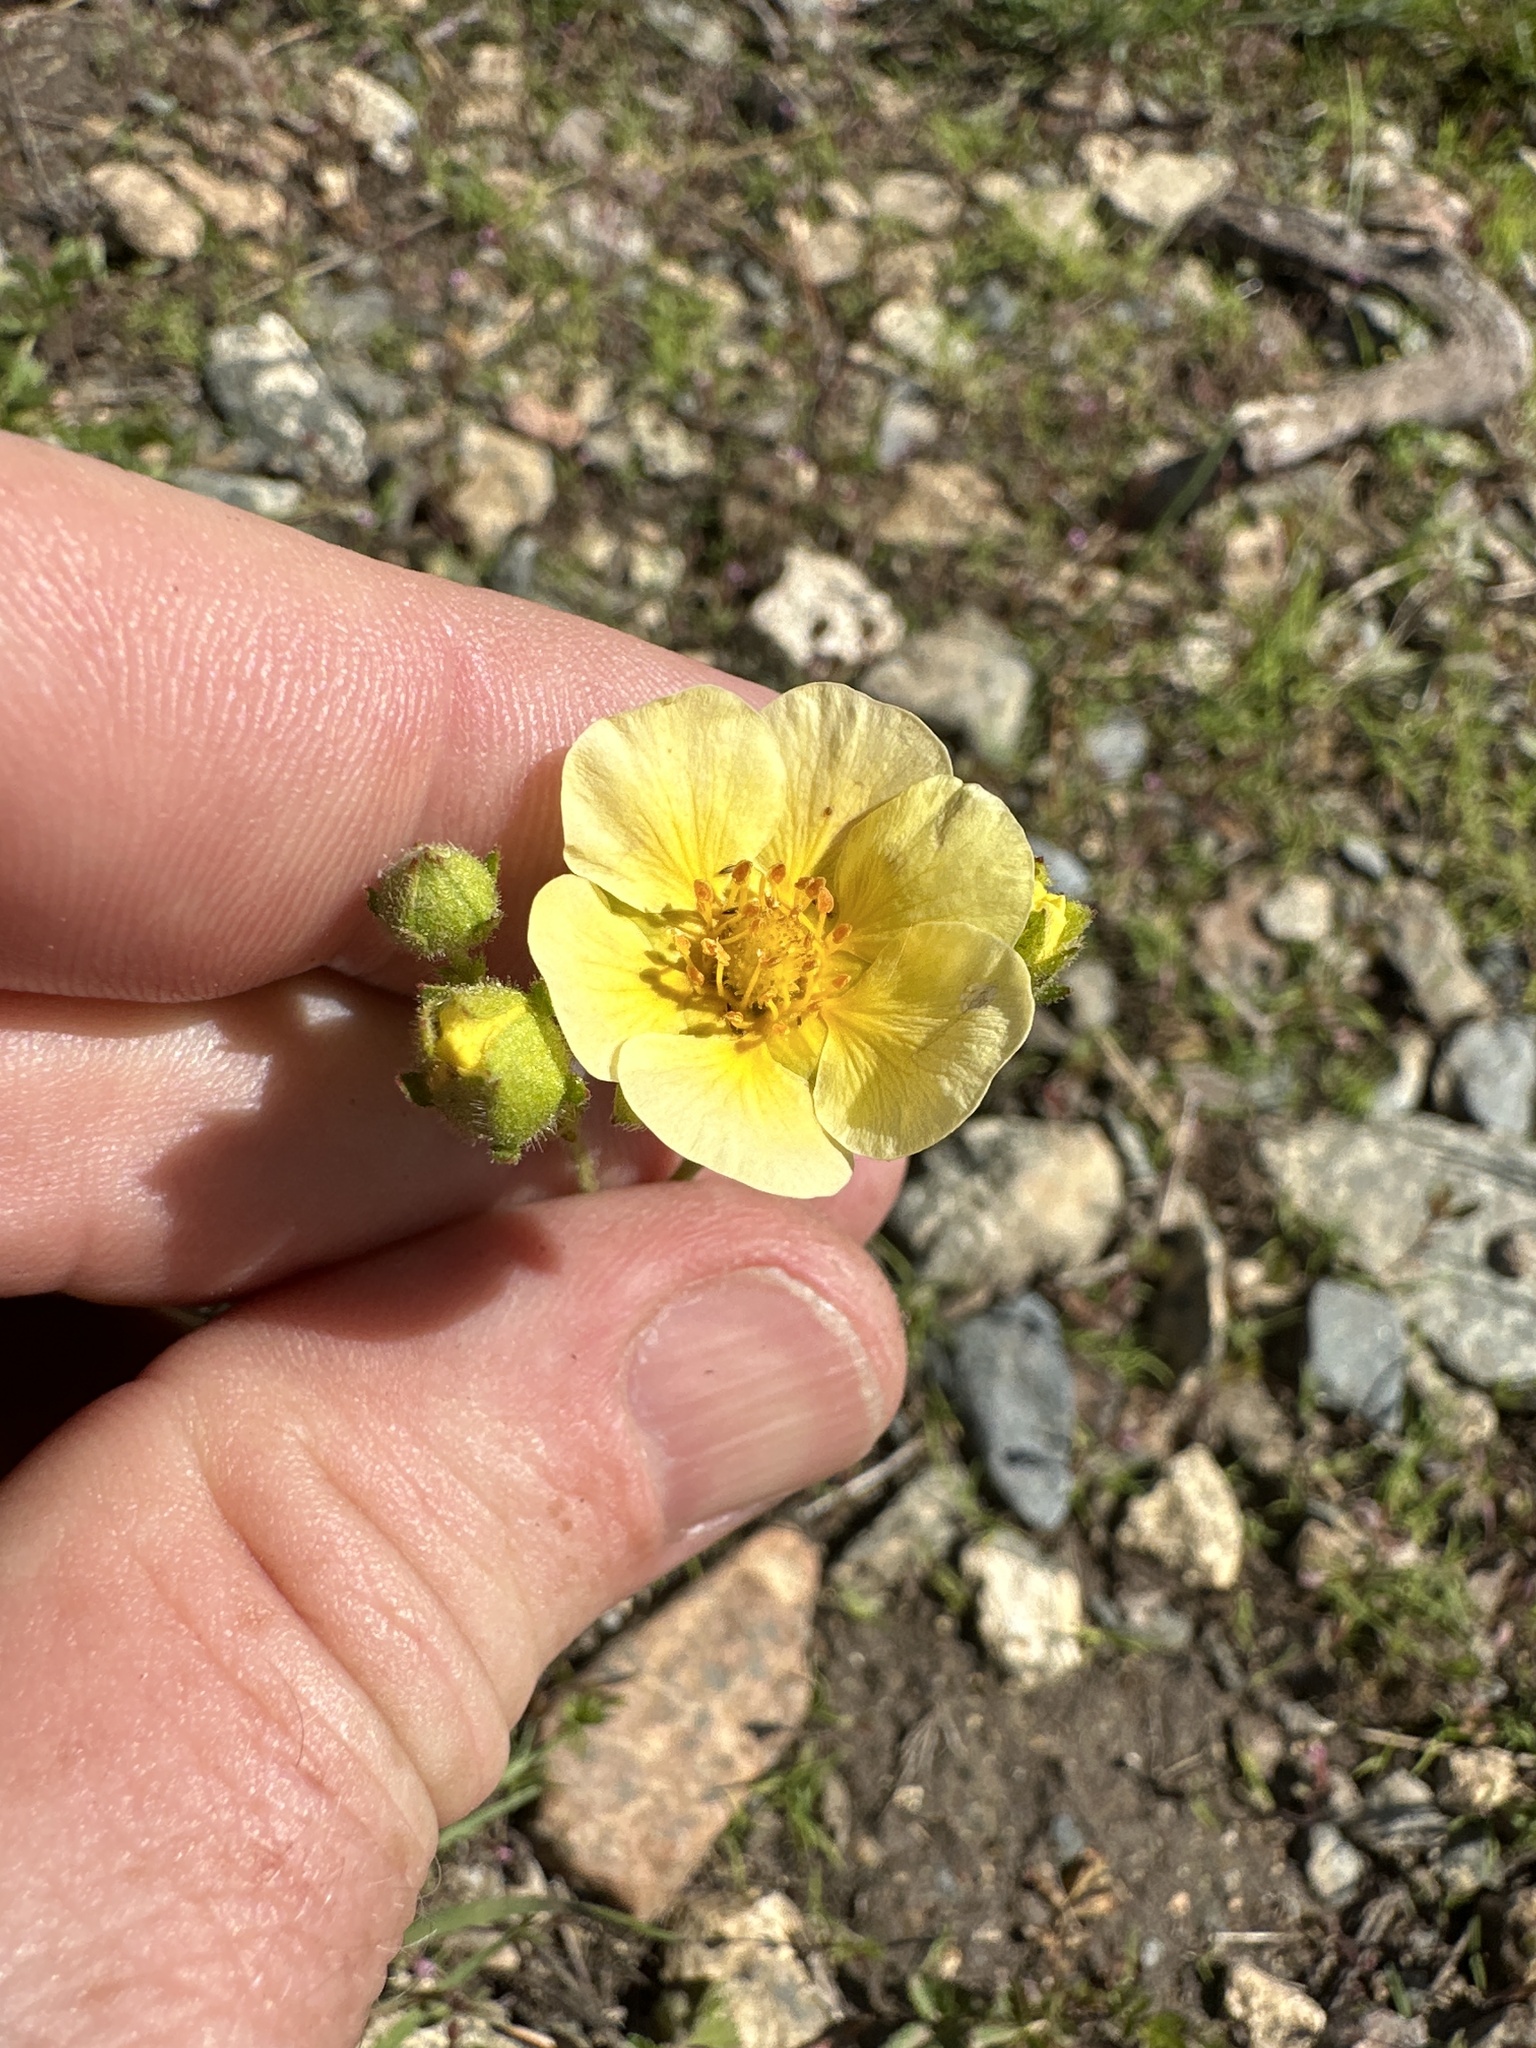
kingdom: Plantae
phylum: Tracheophyta
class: Magnoliopsida
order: Rosales
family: Rosaceae
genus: Drymocallis
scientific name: Drymocallis lactea
